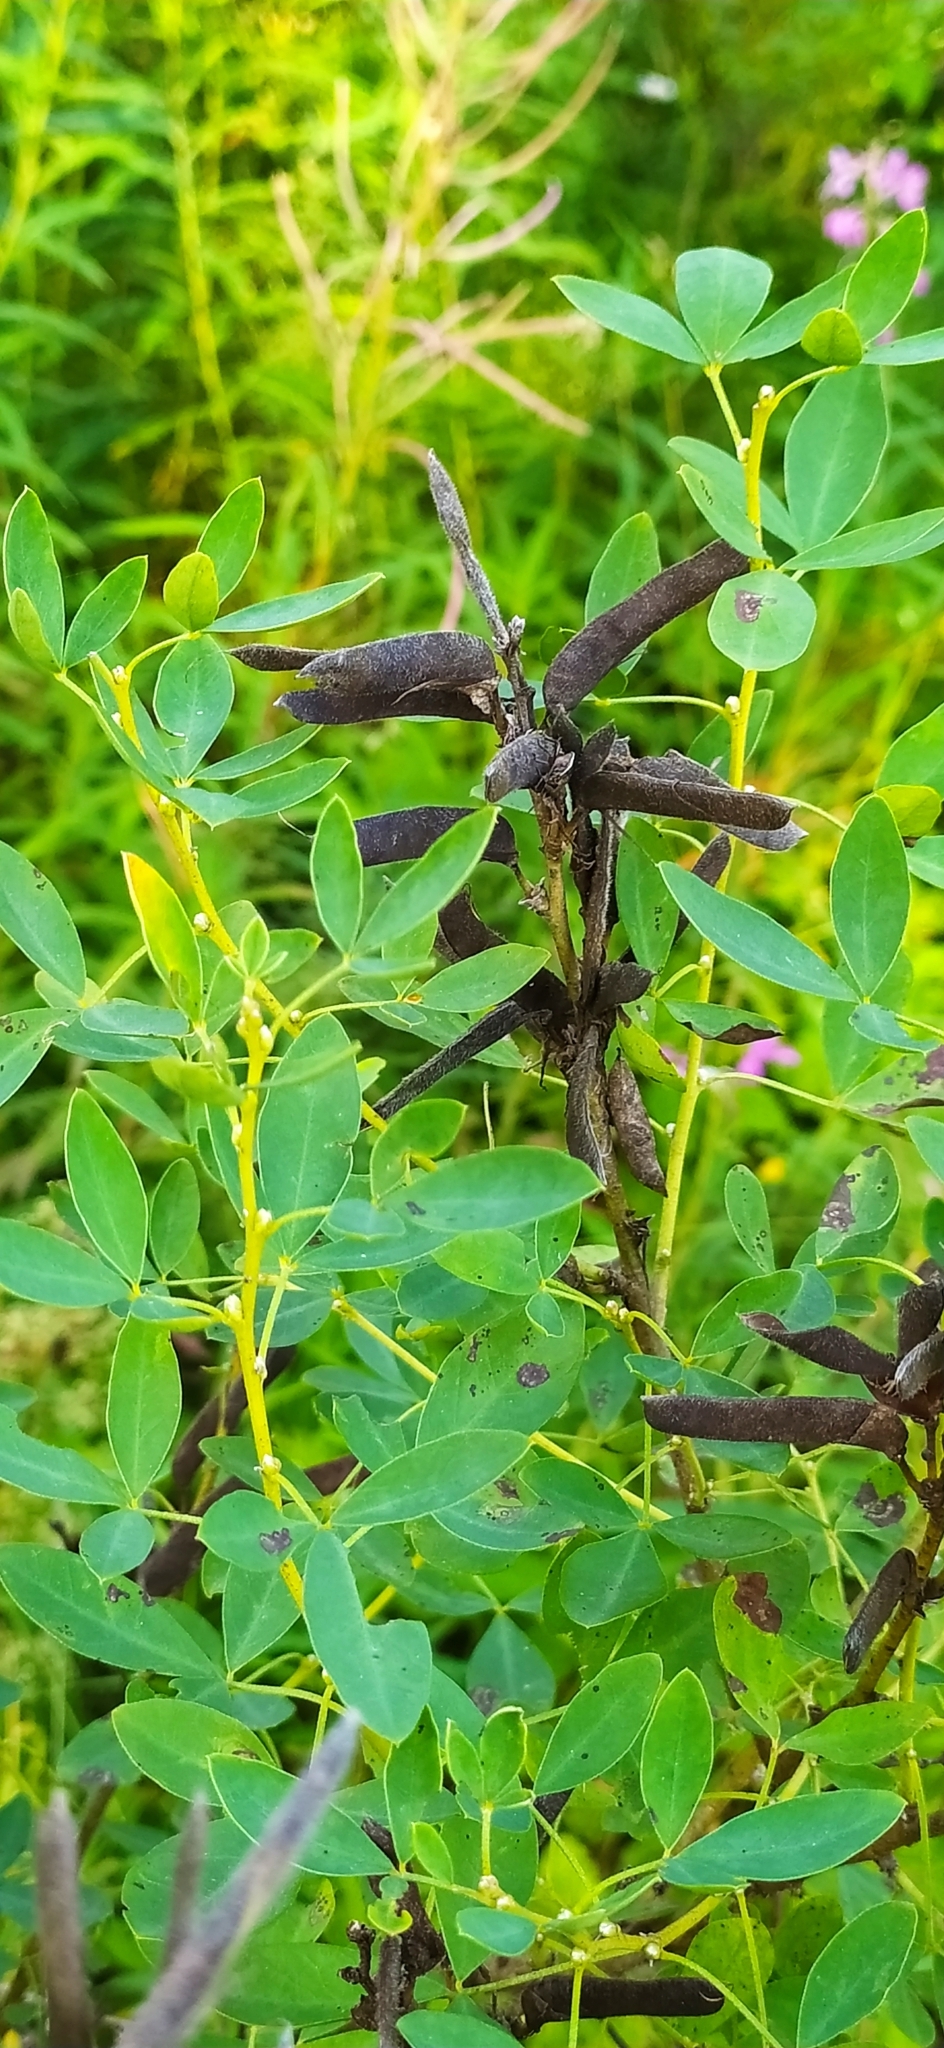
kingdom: Plantae
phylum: Tracheophyta
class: Magnoliopsida
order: Fabales
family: Fabaceae
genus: Chamaecytisus
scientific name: Chamaecytisus ruthenicus
